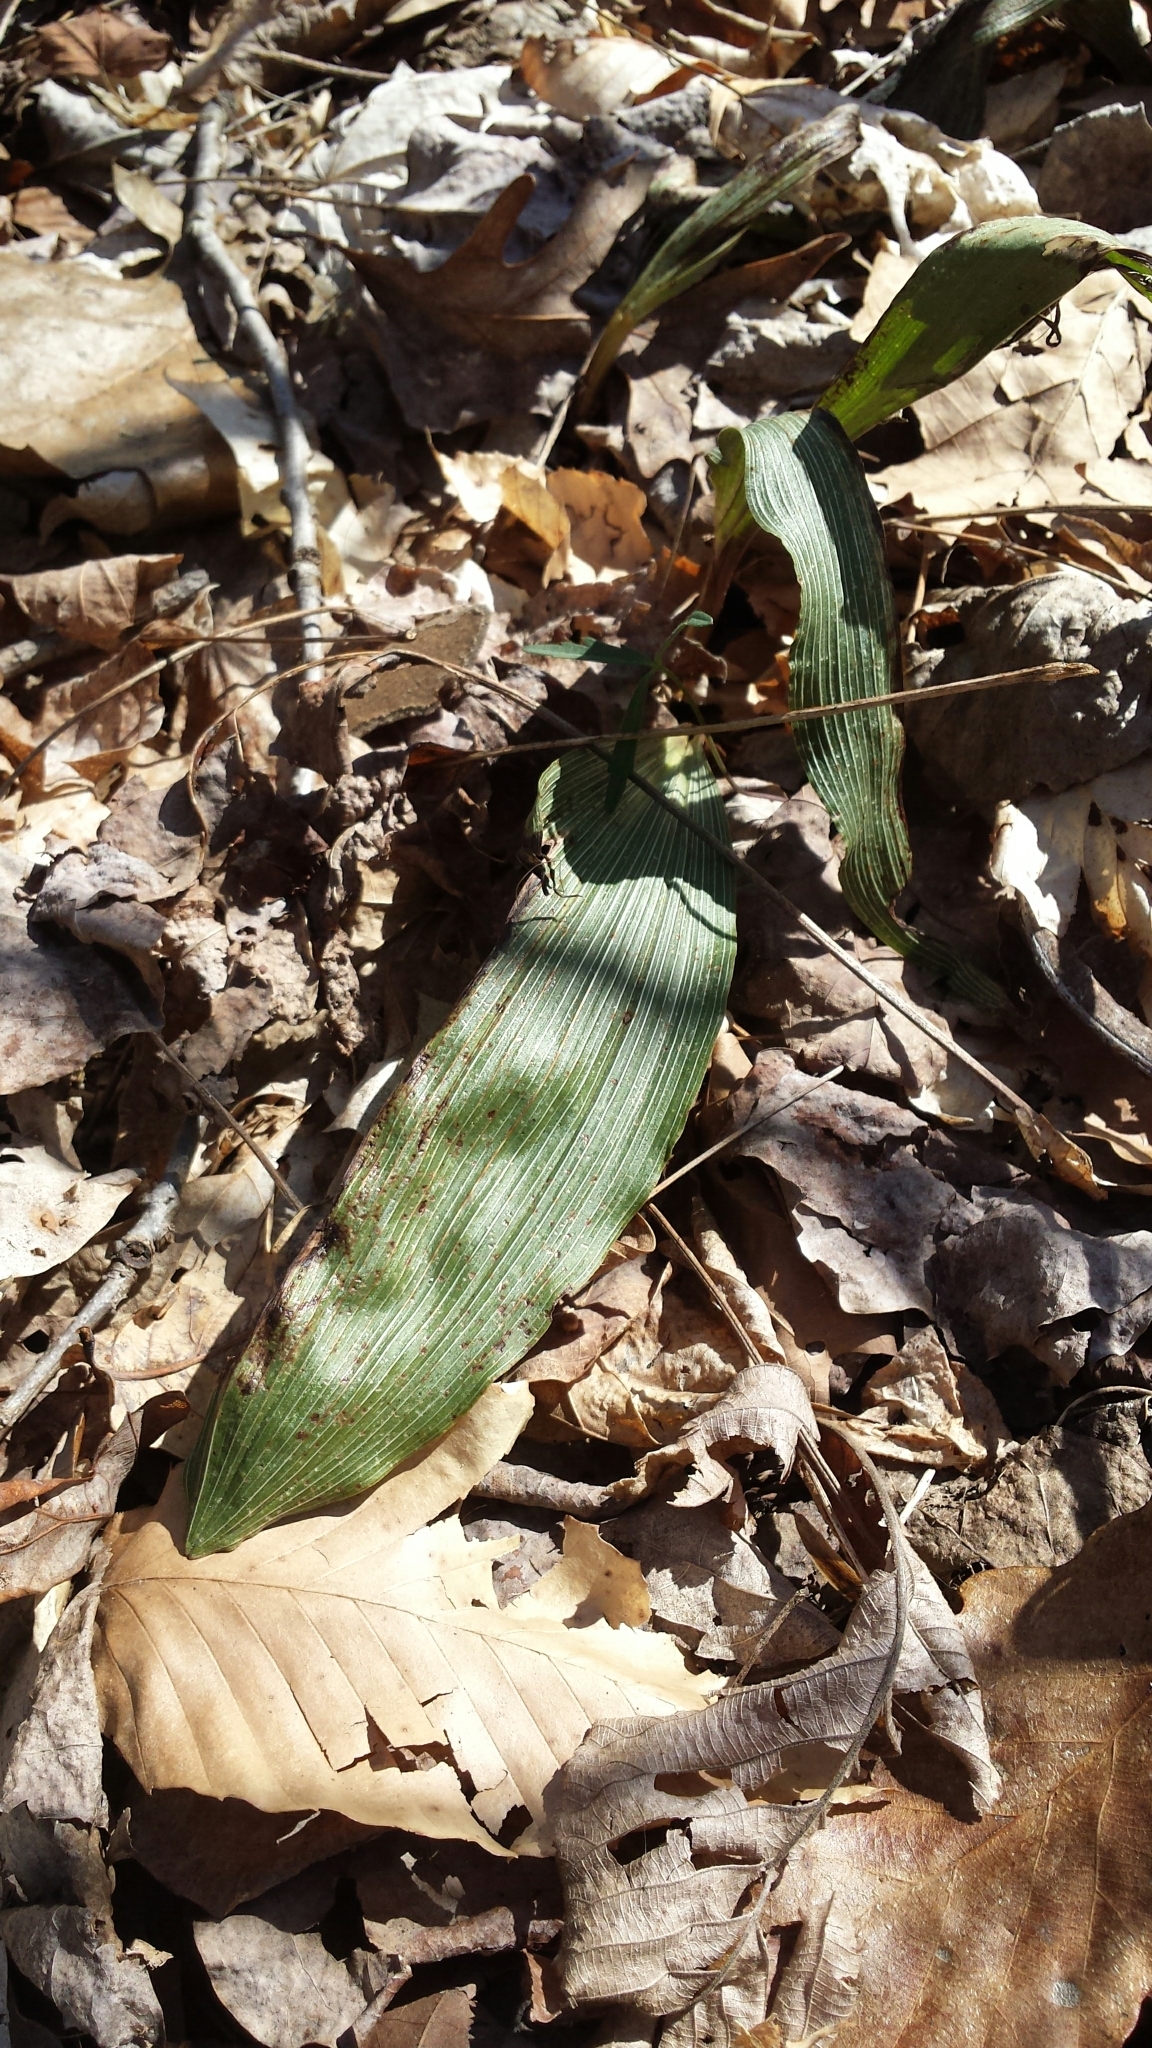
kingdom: Plantae
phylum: Tracheophyta
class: Liliopsida
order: Asparagales
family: Orchidaceae
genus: Aplectrum
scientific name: Aplectrum hyemale
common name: Adam-and-eve
